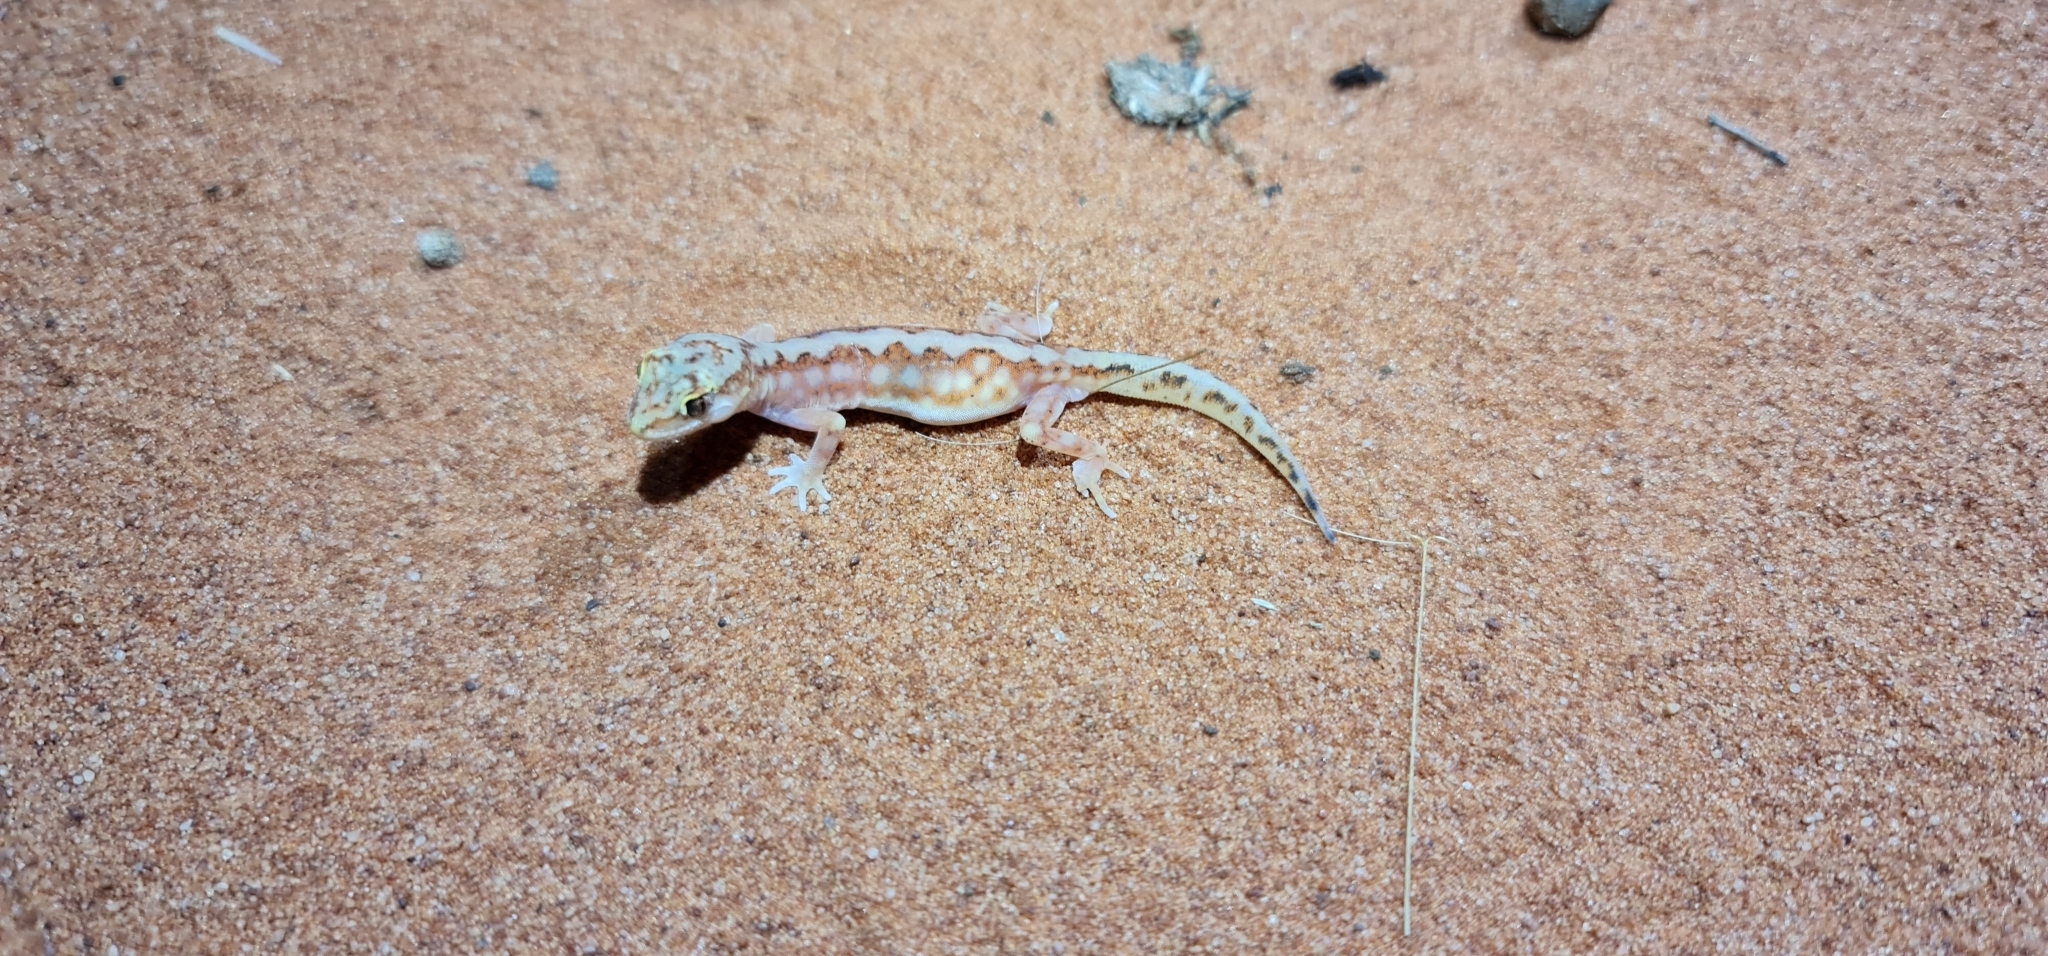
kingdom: Animalia
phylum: Chordata
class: Squamata
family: Diplodactylidae
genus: Lucasium
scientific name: Lucasium damaeum
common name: Beaded gecko
